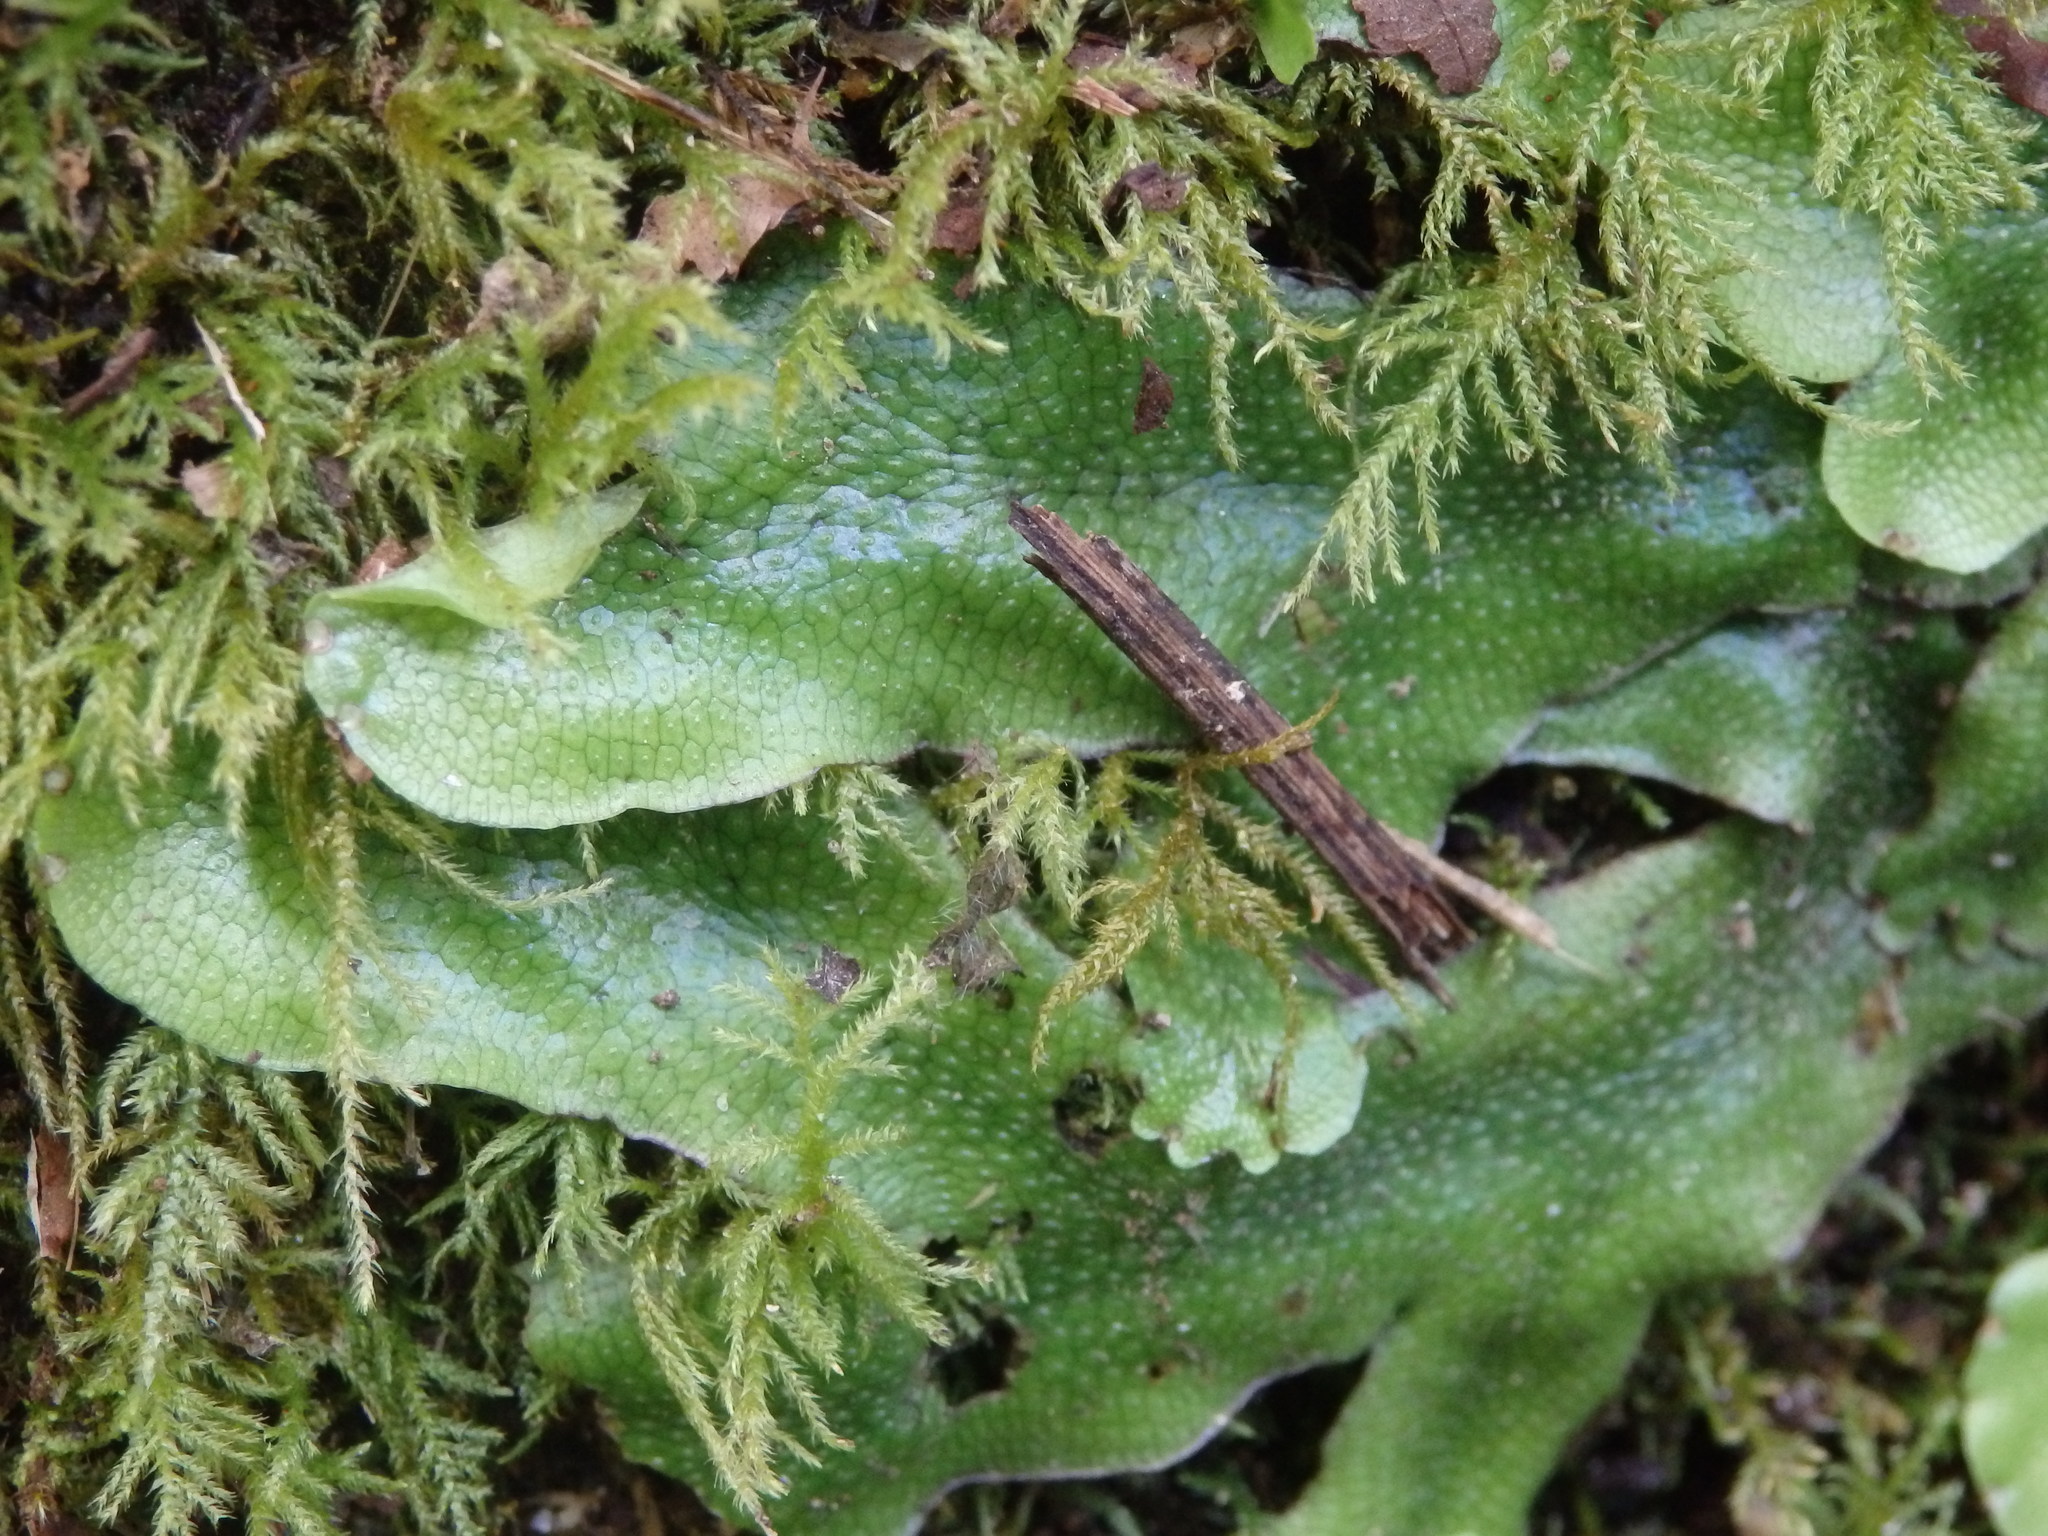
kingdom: Plantae
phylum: Marchantiophyta
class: Marchantiopsida
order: Marchantiales
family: Conocephalaceae
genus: Conocephalum
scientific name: Conocephalum conicum
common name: Great scented liverwort
